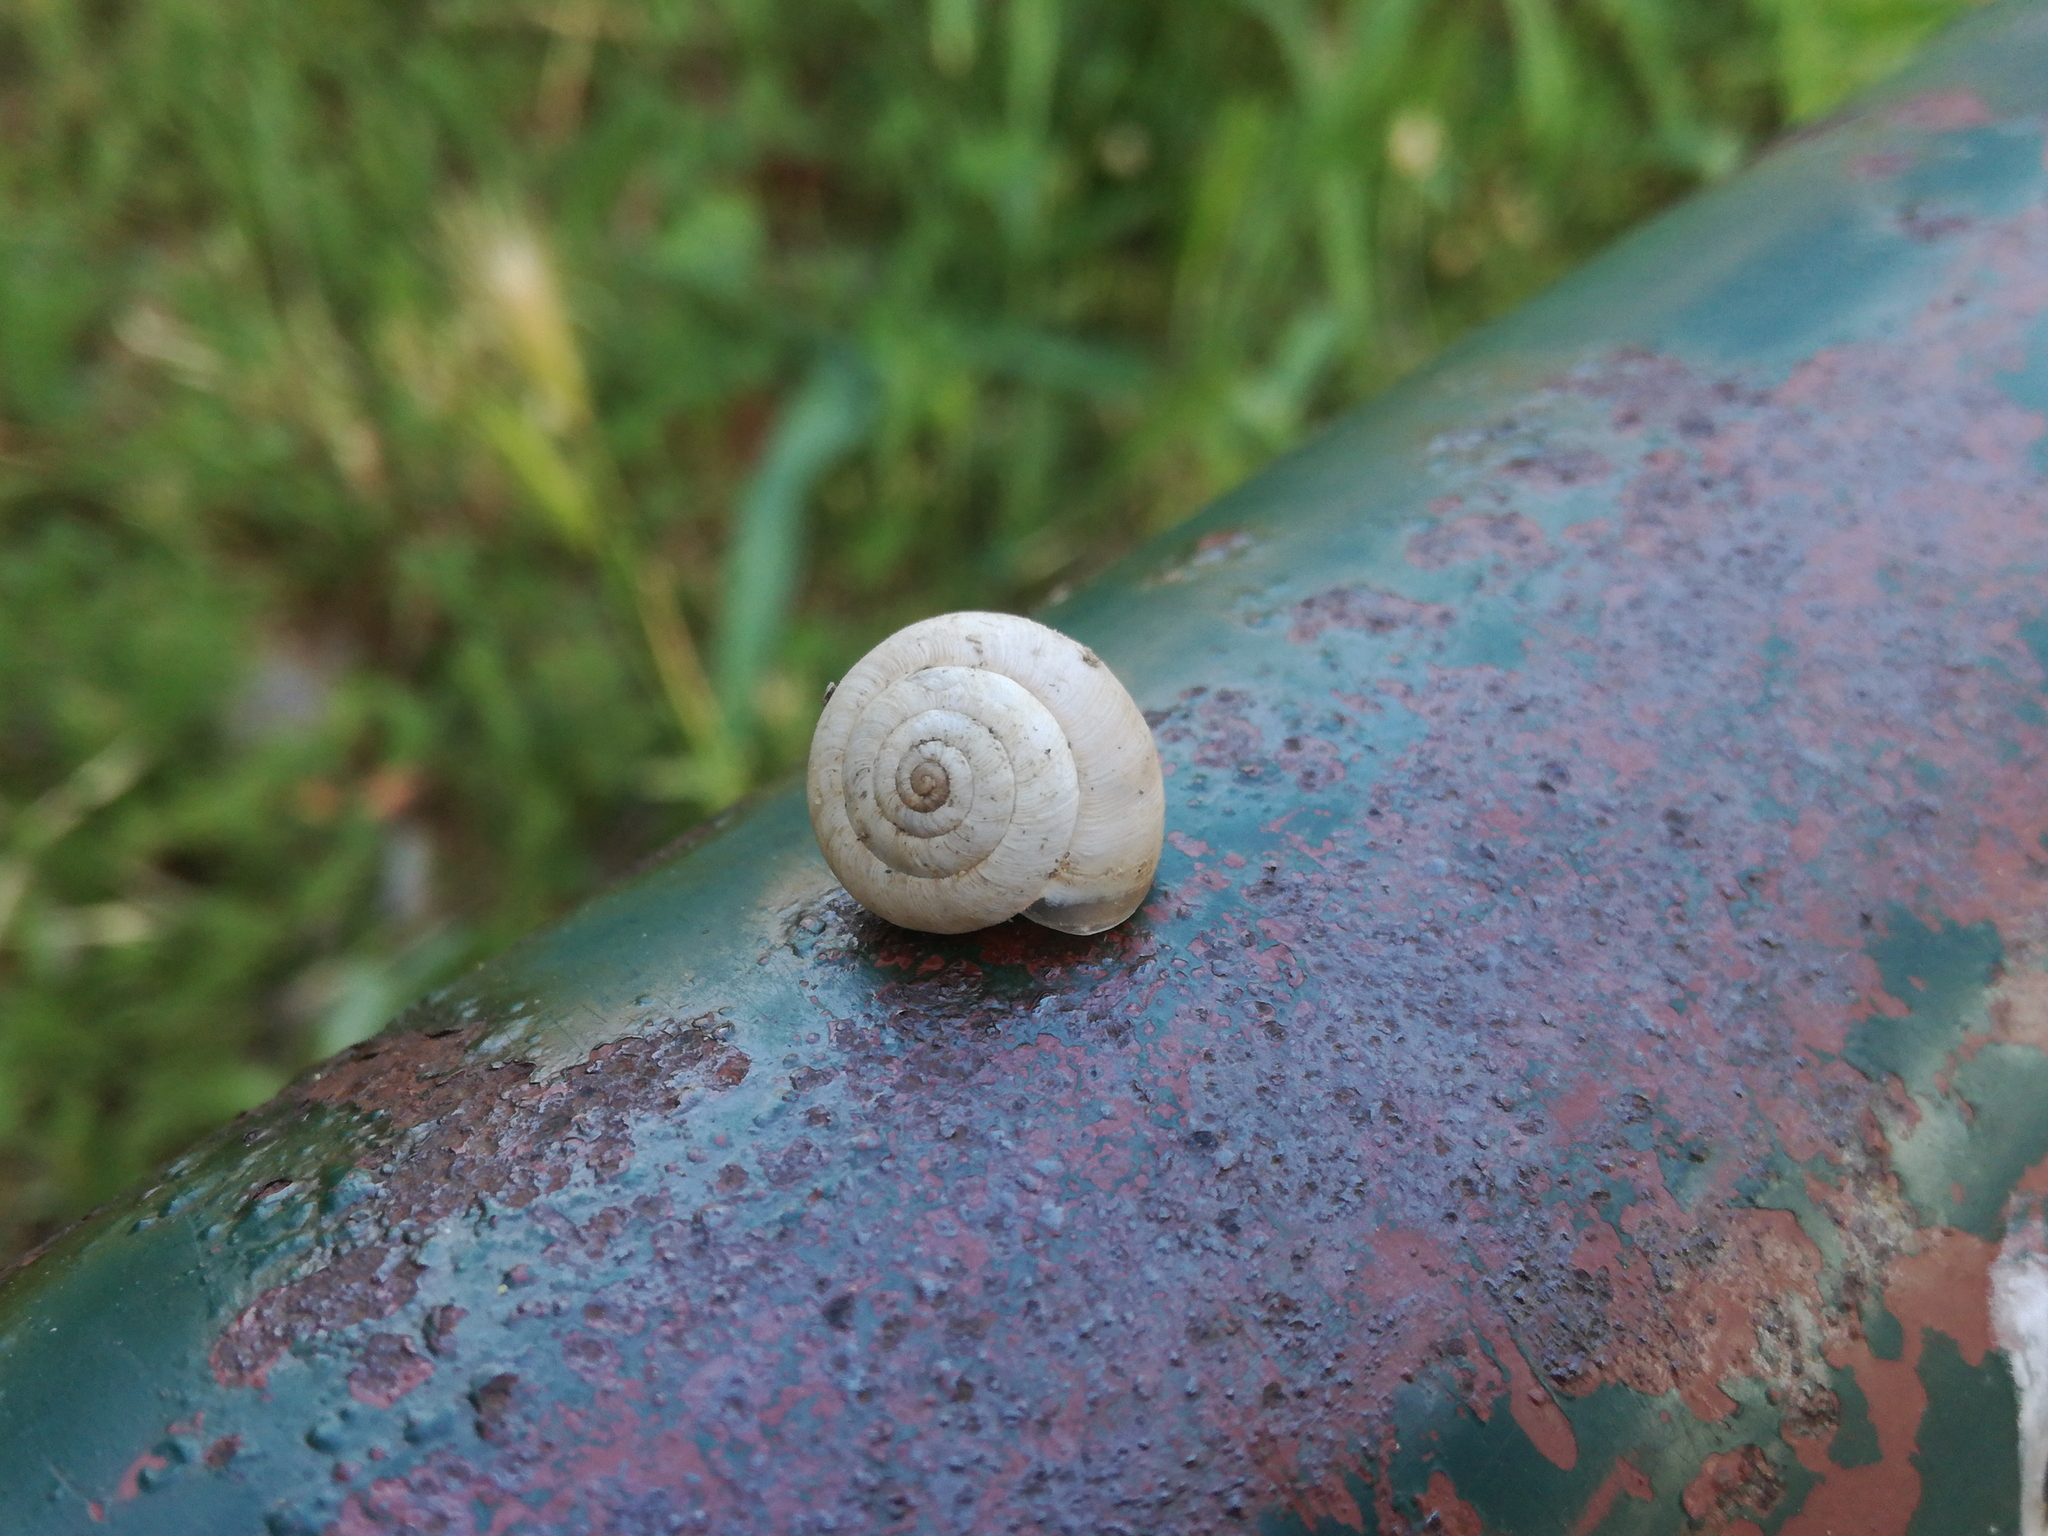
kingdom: Animalia
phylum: Mollusca
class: Gastropoda
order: Stylommatophora
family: Helicidae
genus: Theba
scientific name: Theba pisana
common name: White snail
